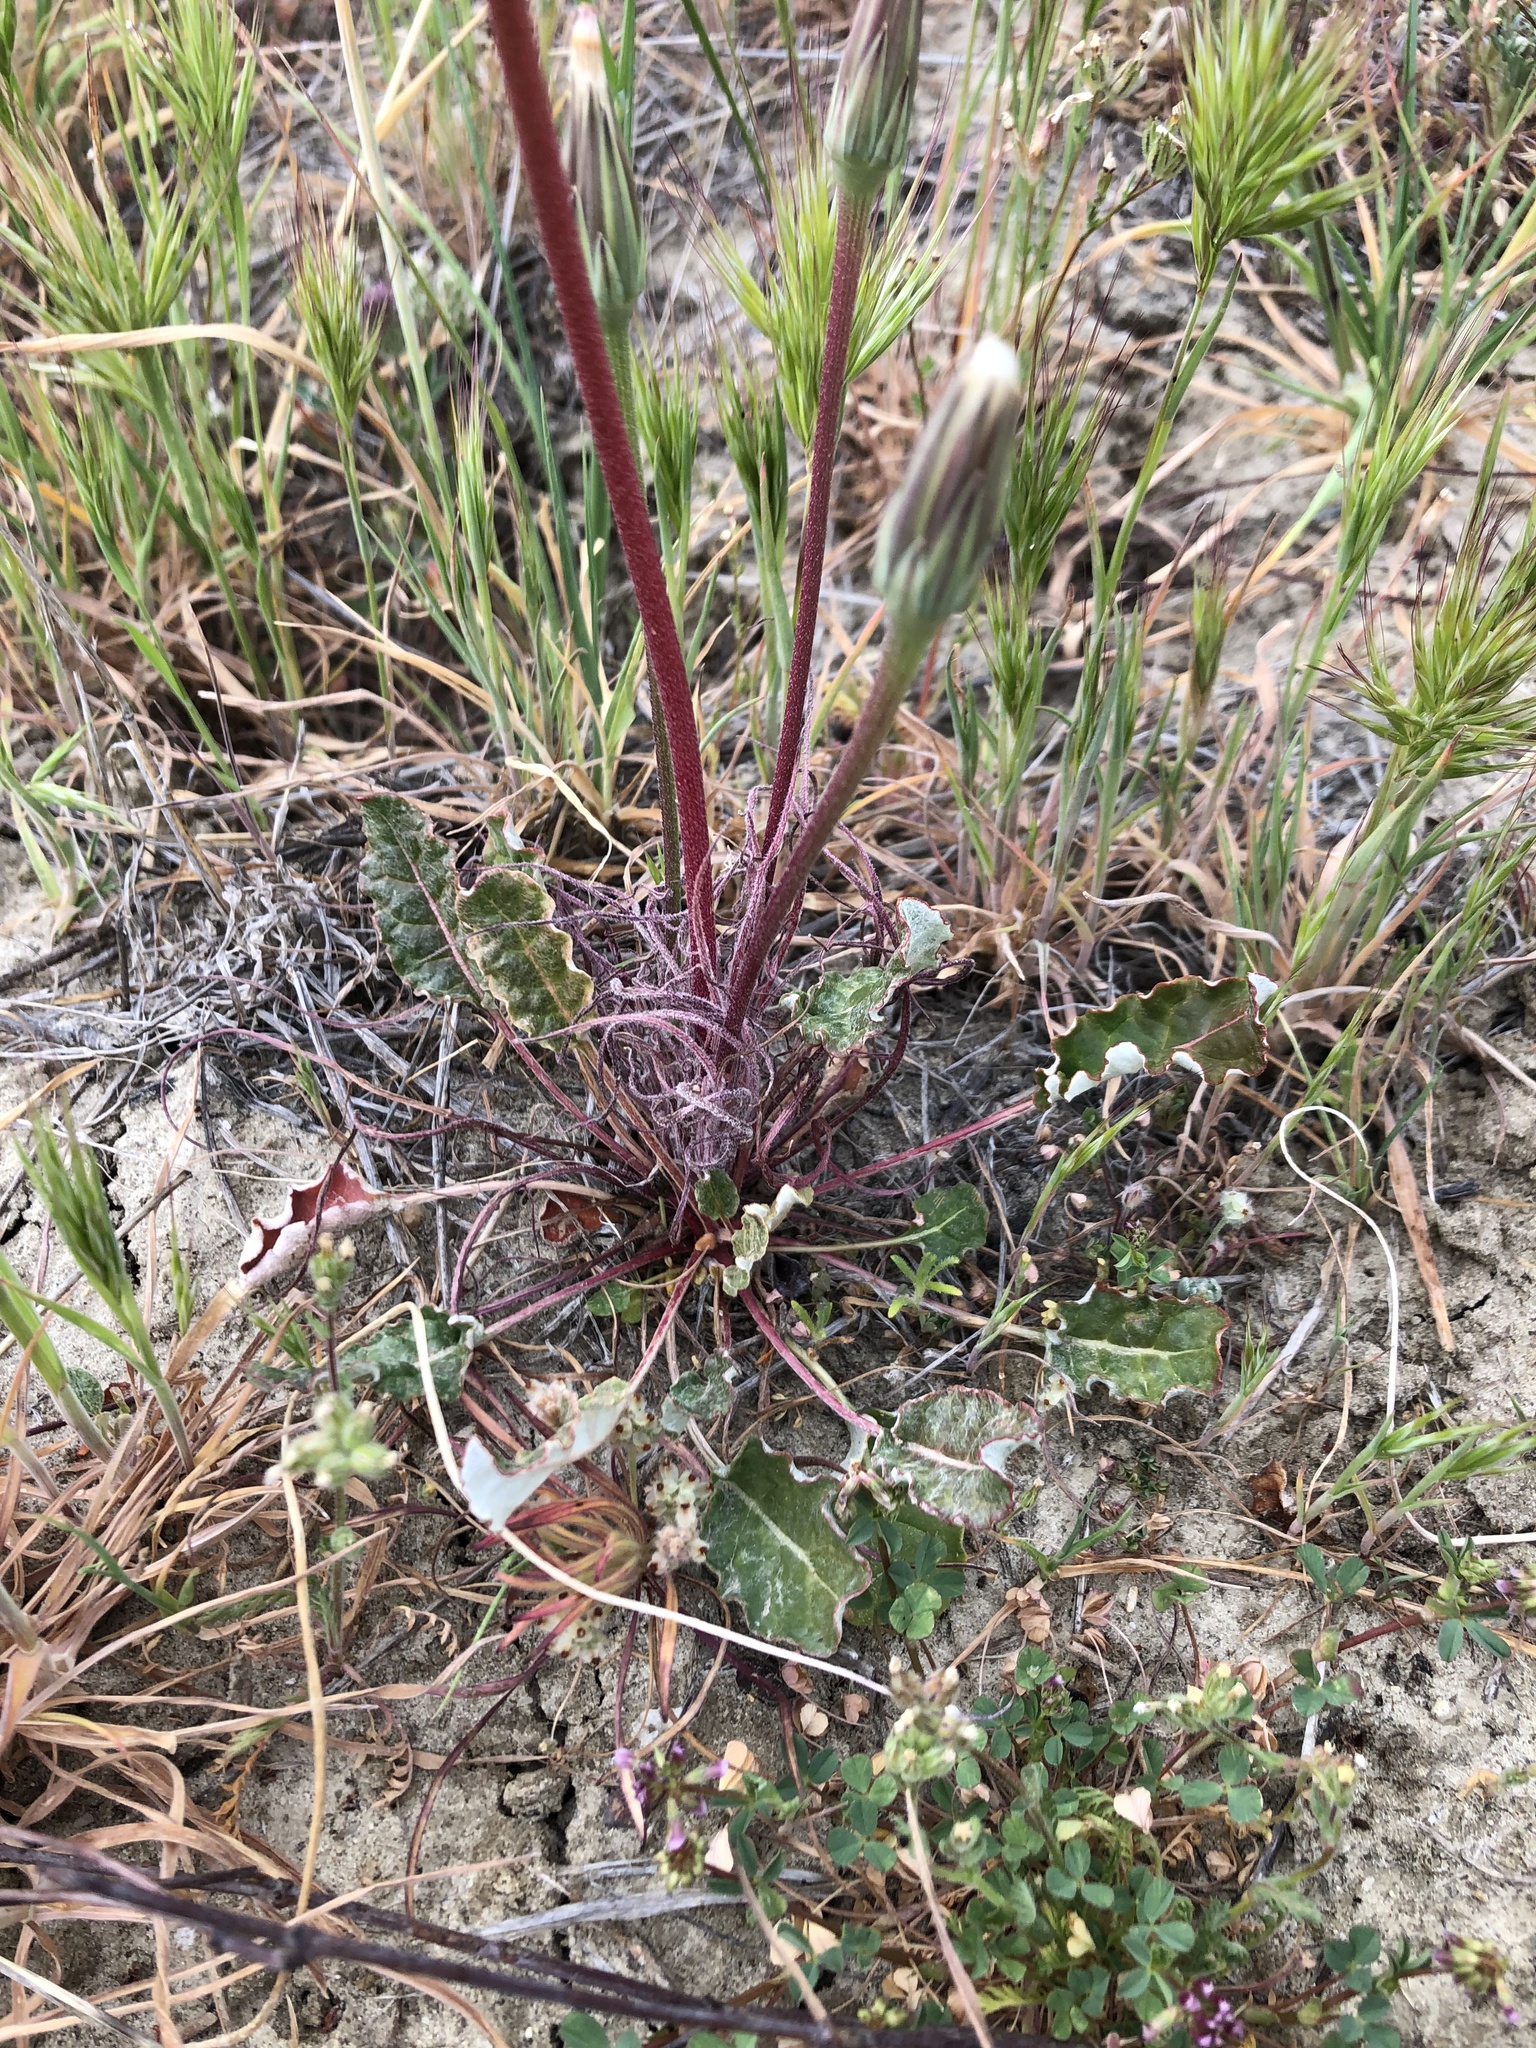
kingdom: Plantae
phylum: Tracheophyta
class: Magnoliopsida
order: Asterales
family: Asteraceae
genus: Microseris
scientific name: Microseris lindleyi
